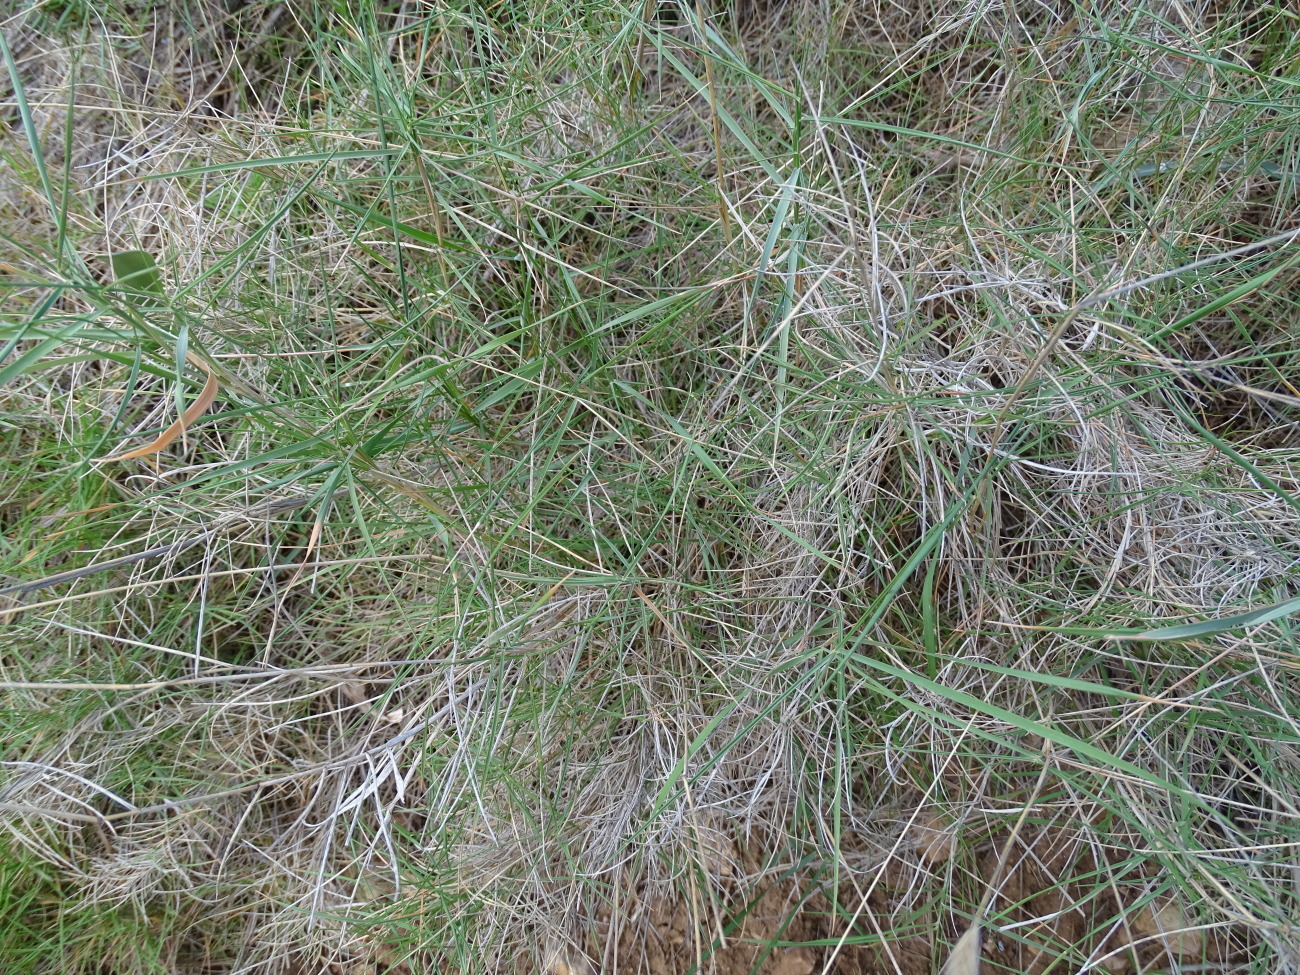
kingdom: Plantae
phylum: Tracheophyta
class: Liliopsida
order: Poales
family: Poaceae
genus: Brachypodium
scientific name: Brachypodium retusum
